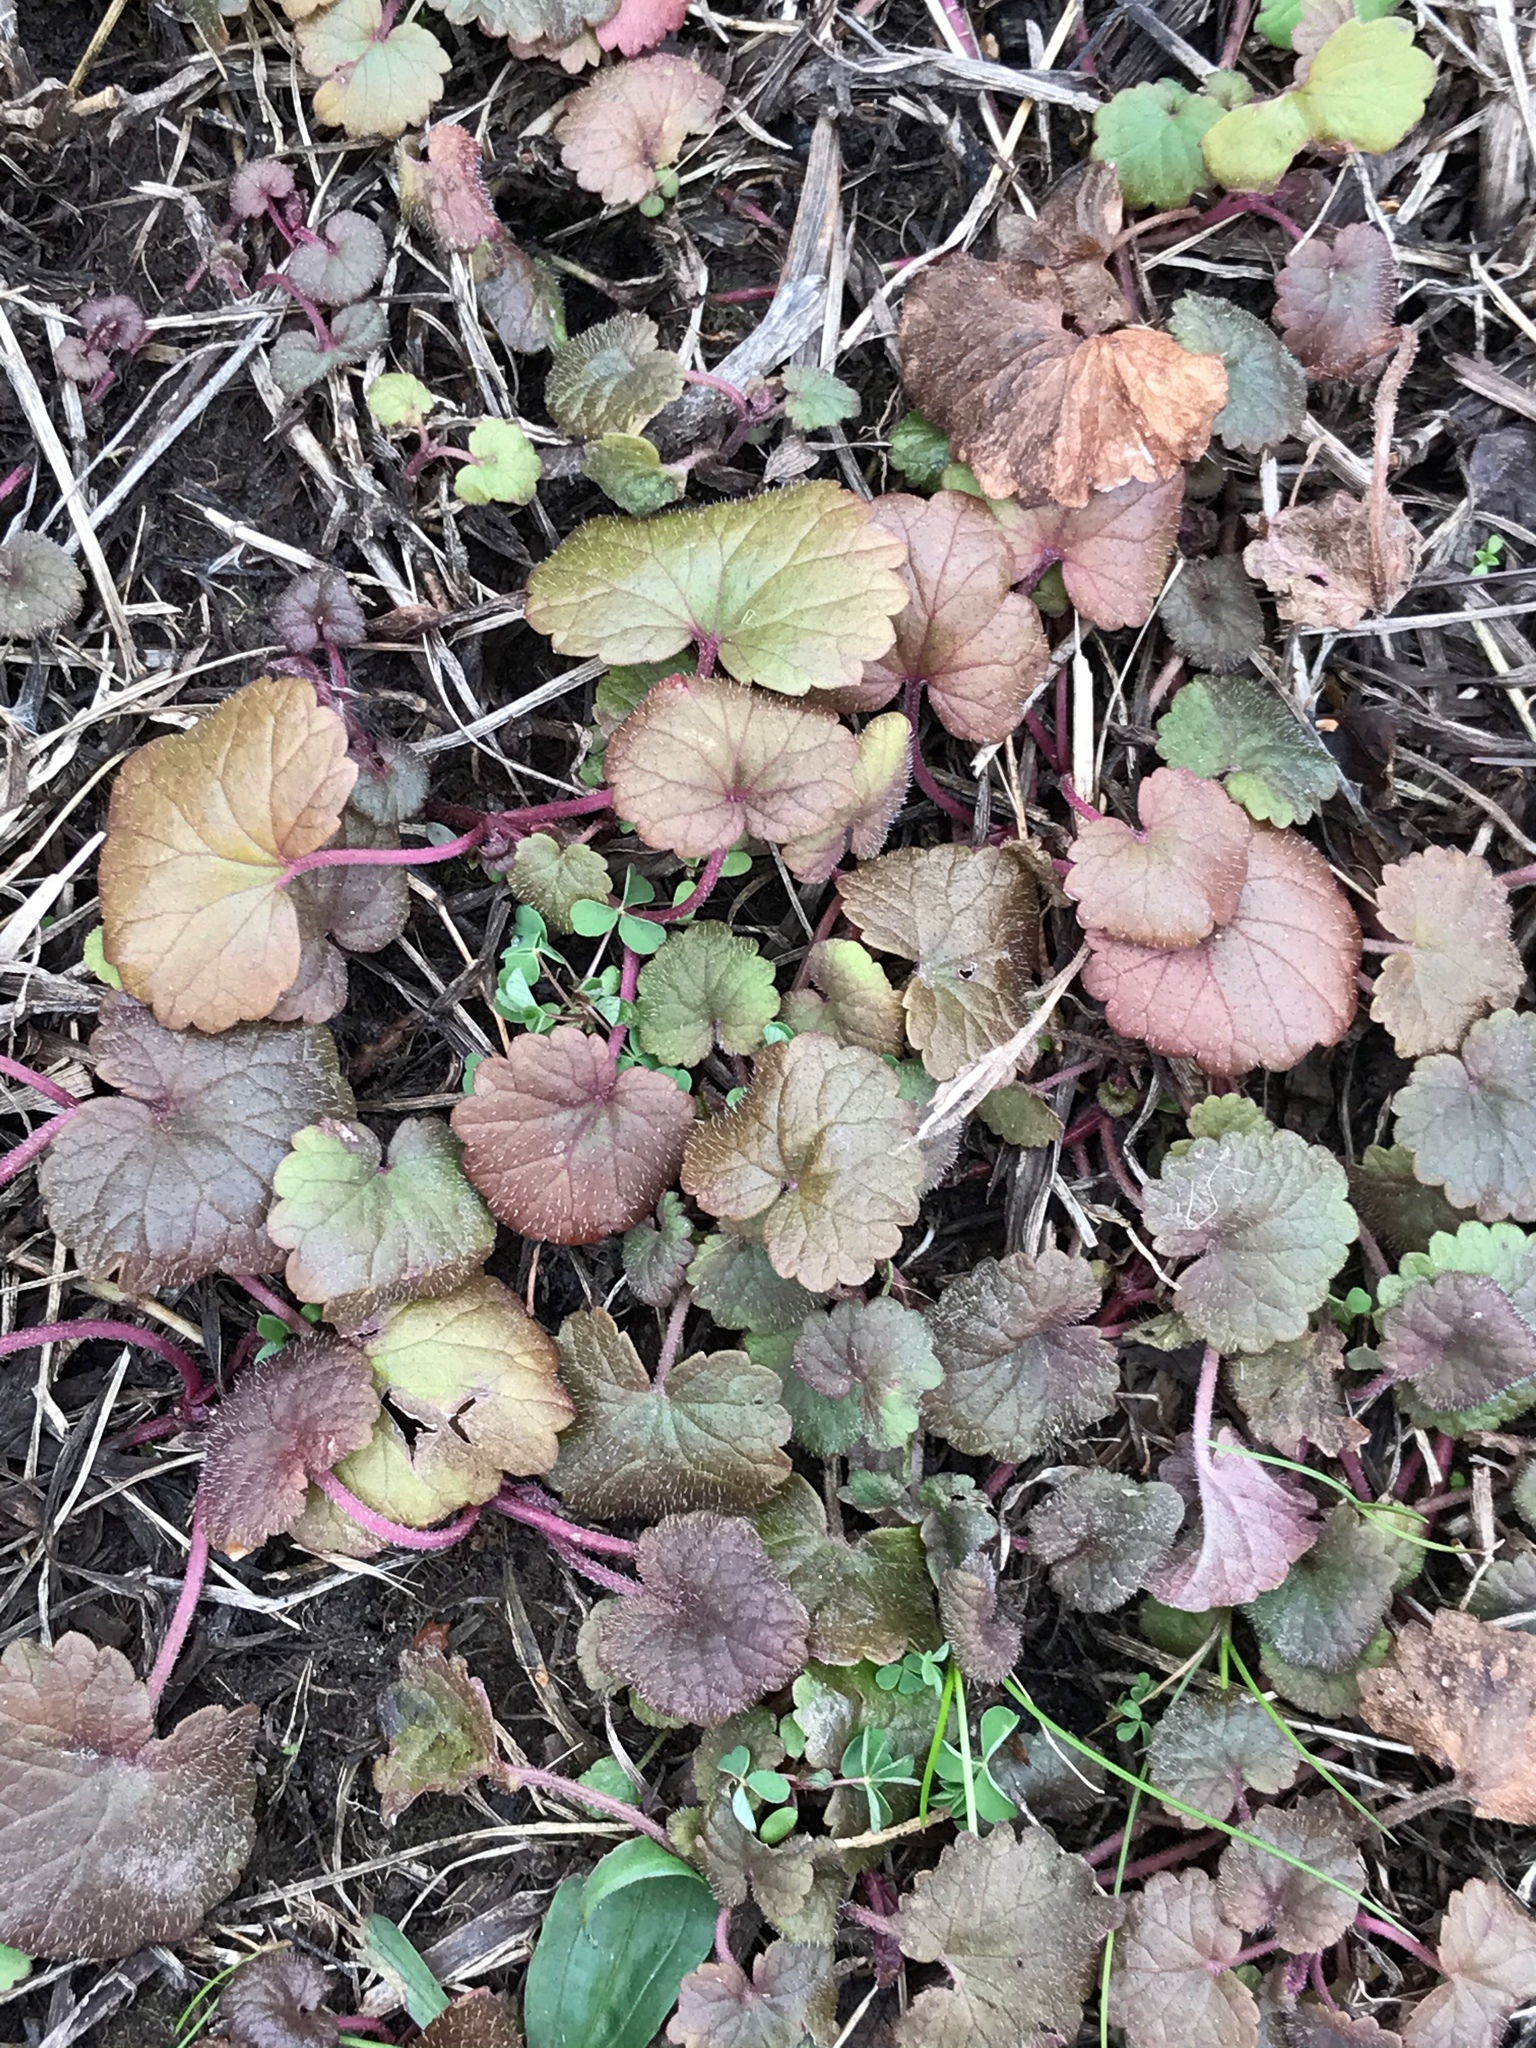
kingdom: Plantae
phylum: Tracheophyta
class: Magnoliopsida
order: Lamiales
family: Lamiaceae
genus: Glechoma
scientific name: Glechoma hederacea
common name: Ground ivy
